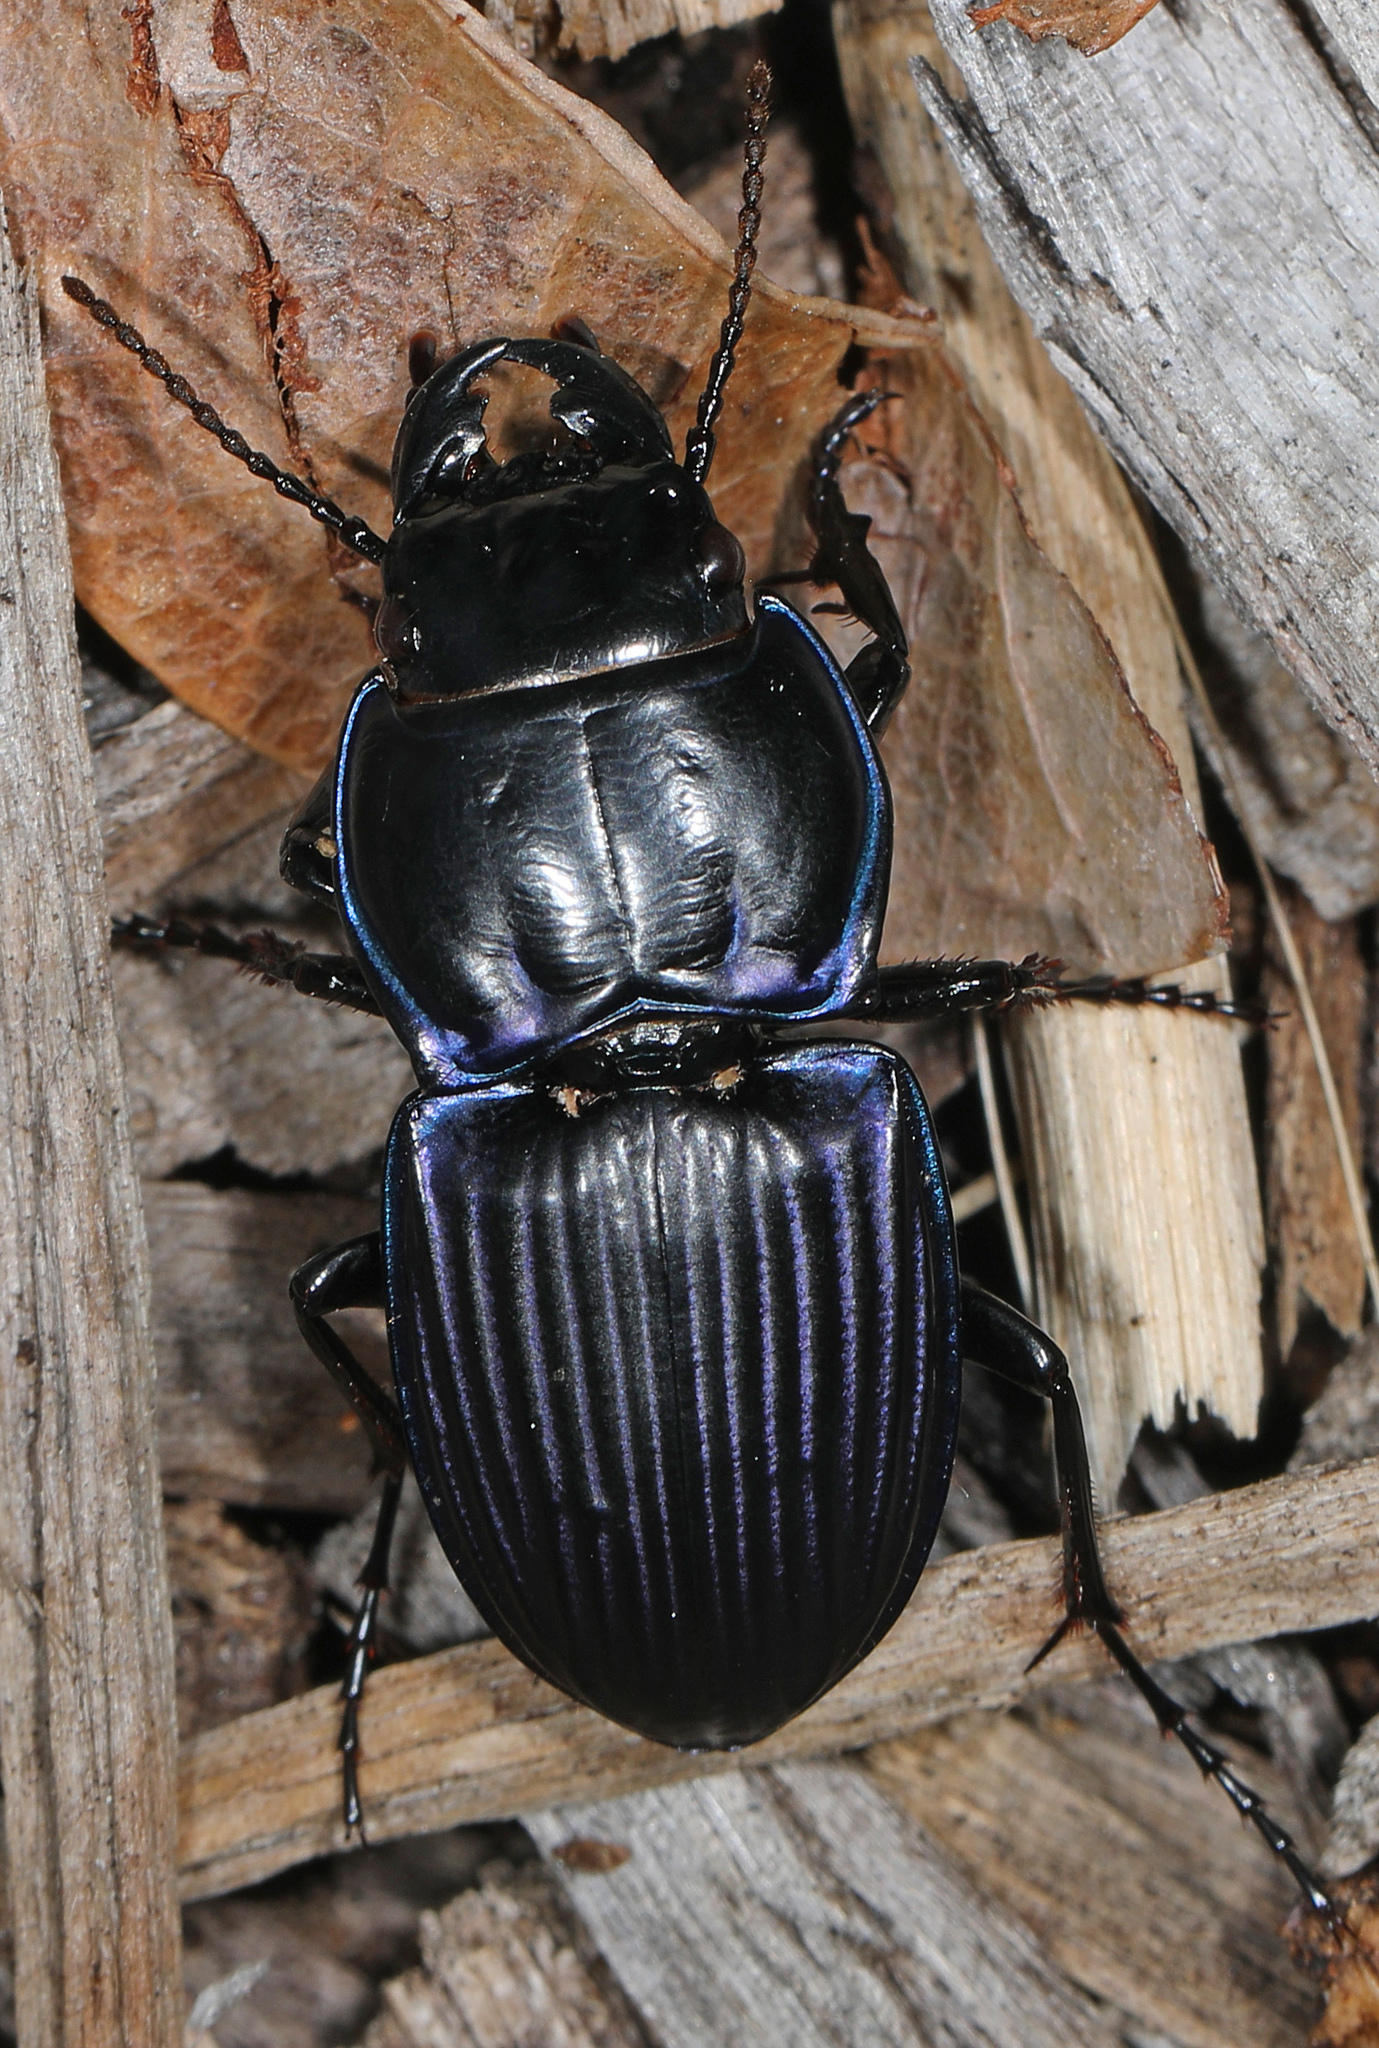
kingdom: Animalia
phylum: Arthropoda
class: Insecta
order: Coleoptera
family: Carabidae
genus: Pasimachus
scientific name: Pasimachus subsulcatus
